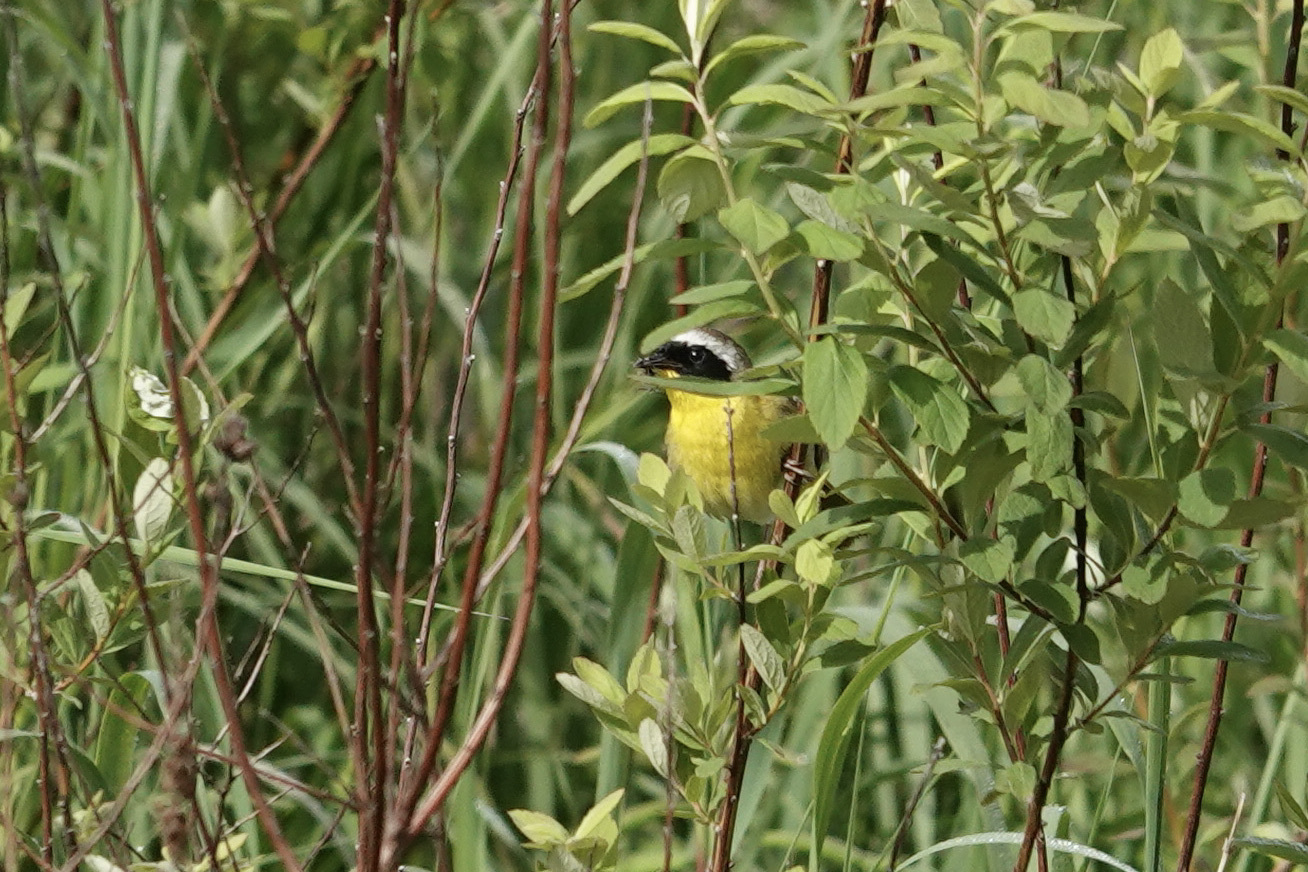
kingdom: Animalia
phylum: Chordata
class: Aves
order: Passeriformes
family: Parulidae
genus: Geothlypis
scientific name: Geothlypis trichas
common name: Common yellowthroat
